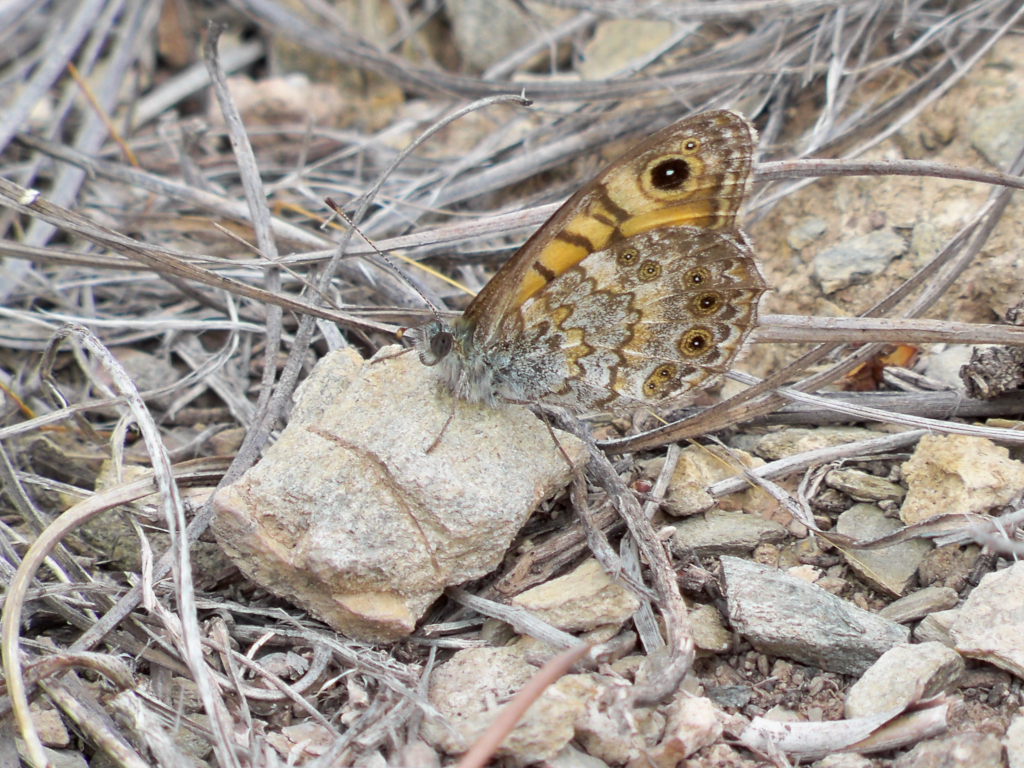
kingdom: Animalia
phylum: Arthropoda
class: Insecta
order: Lepidoptera
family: Nymphalidae
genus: Pararge
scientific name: Pararge Lasiommata megera
